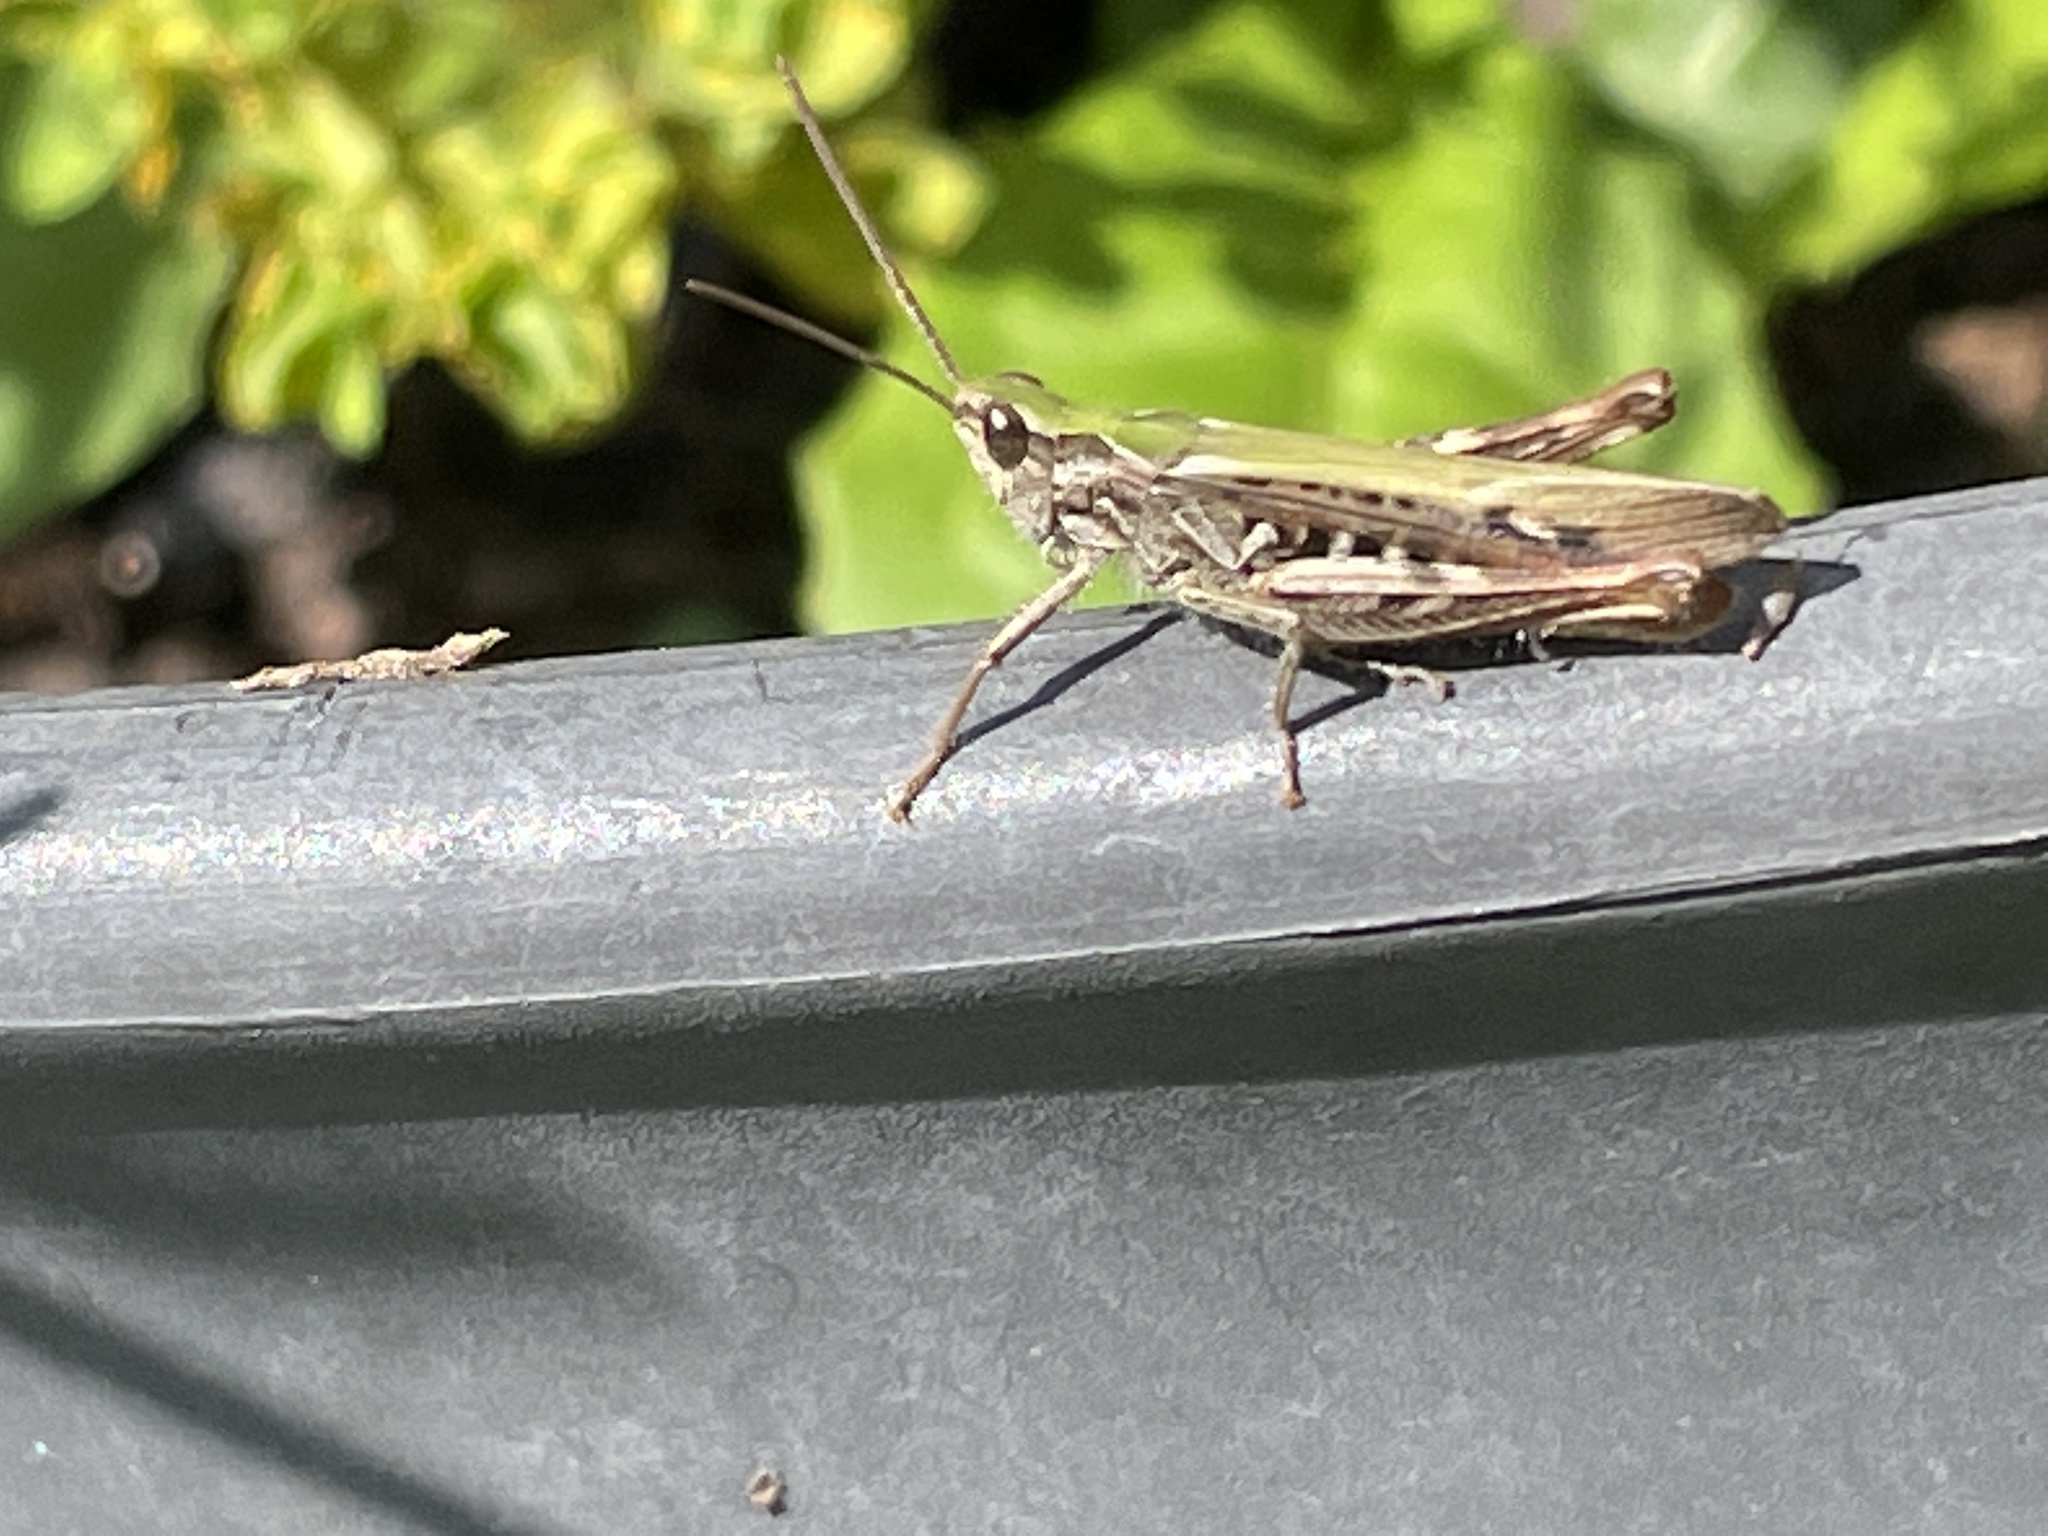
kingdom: Animalia
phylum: Arthropoda
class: Insecta
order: Orthoptera
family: Acrididae
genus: Chorthippus
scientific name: Chorthippus brunneus
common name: Field grasshopper
